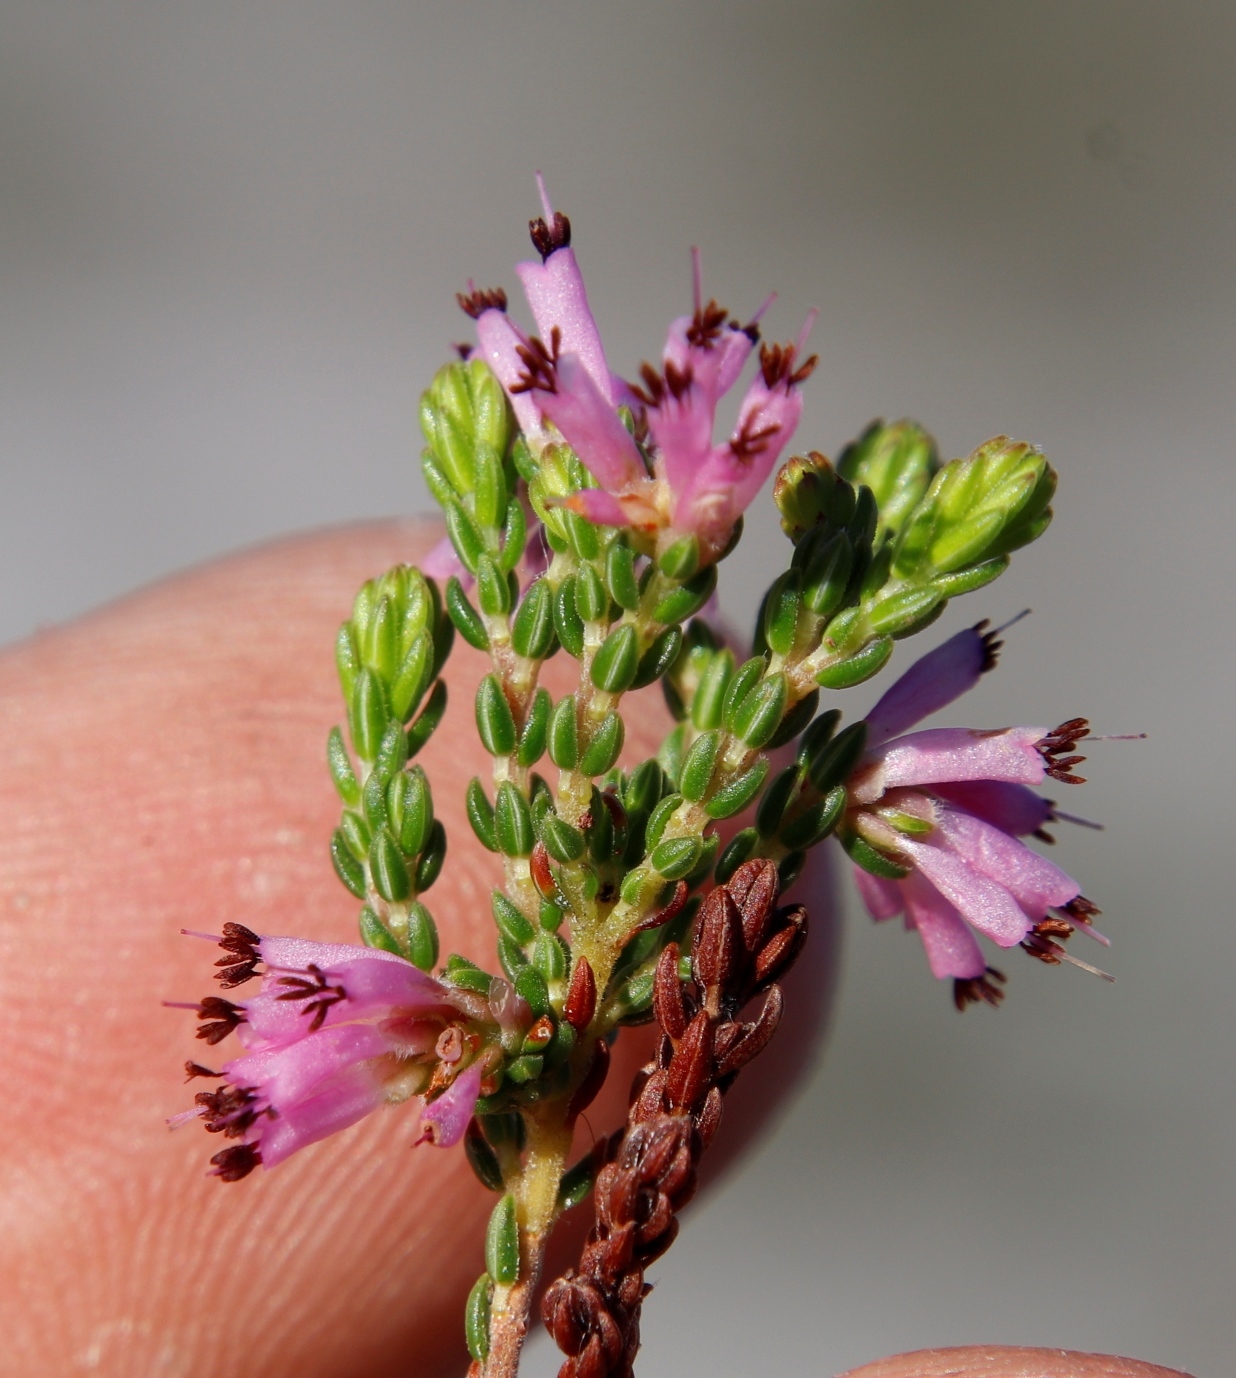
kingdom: Plantae
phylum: Tracheophyta
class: Magnoliopsida
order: Ericales
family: Ericaceae
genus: Erica
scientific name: Erica equisetifolia
